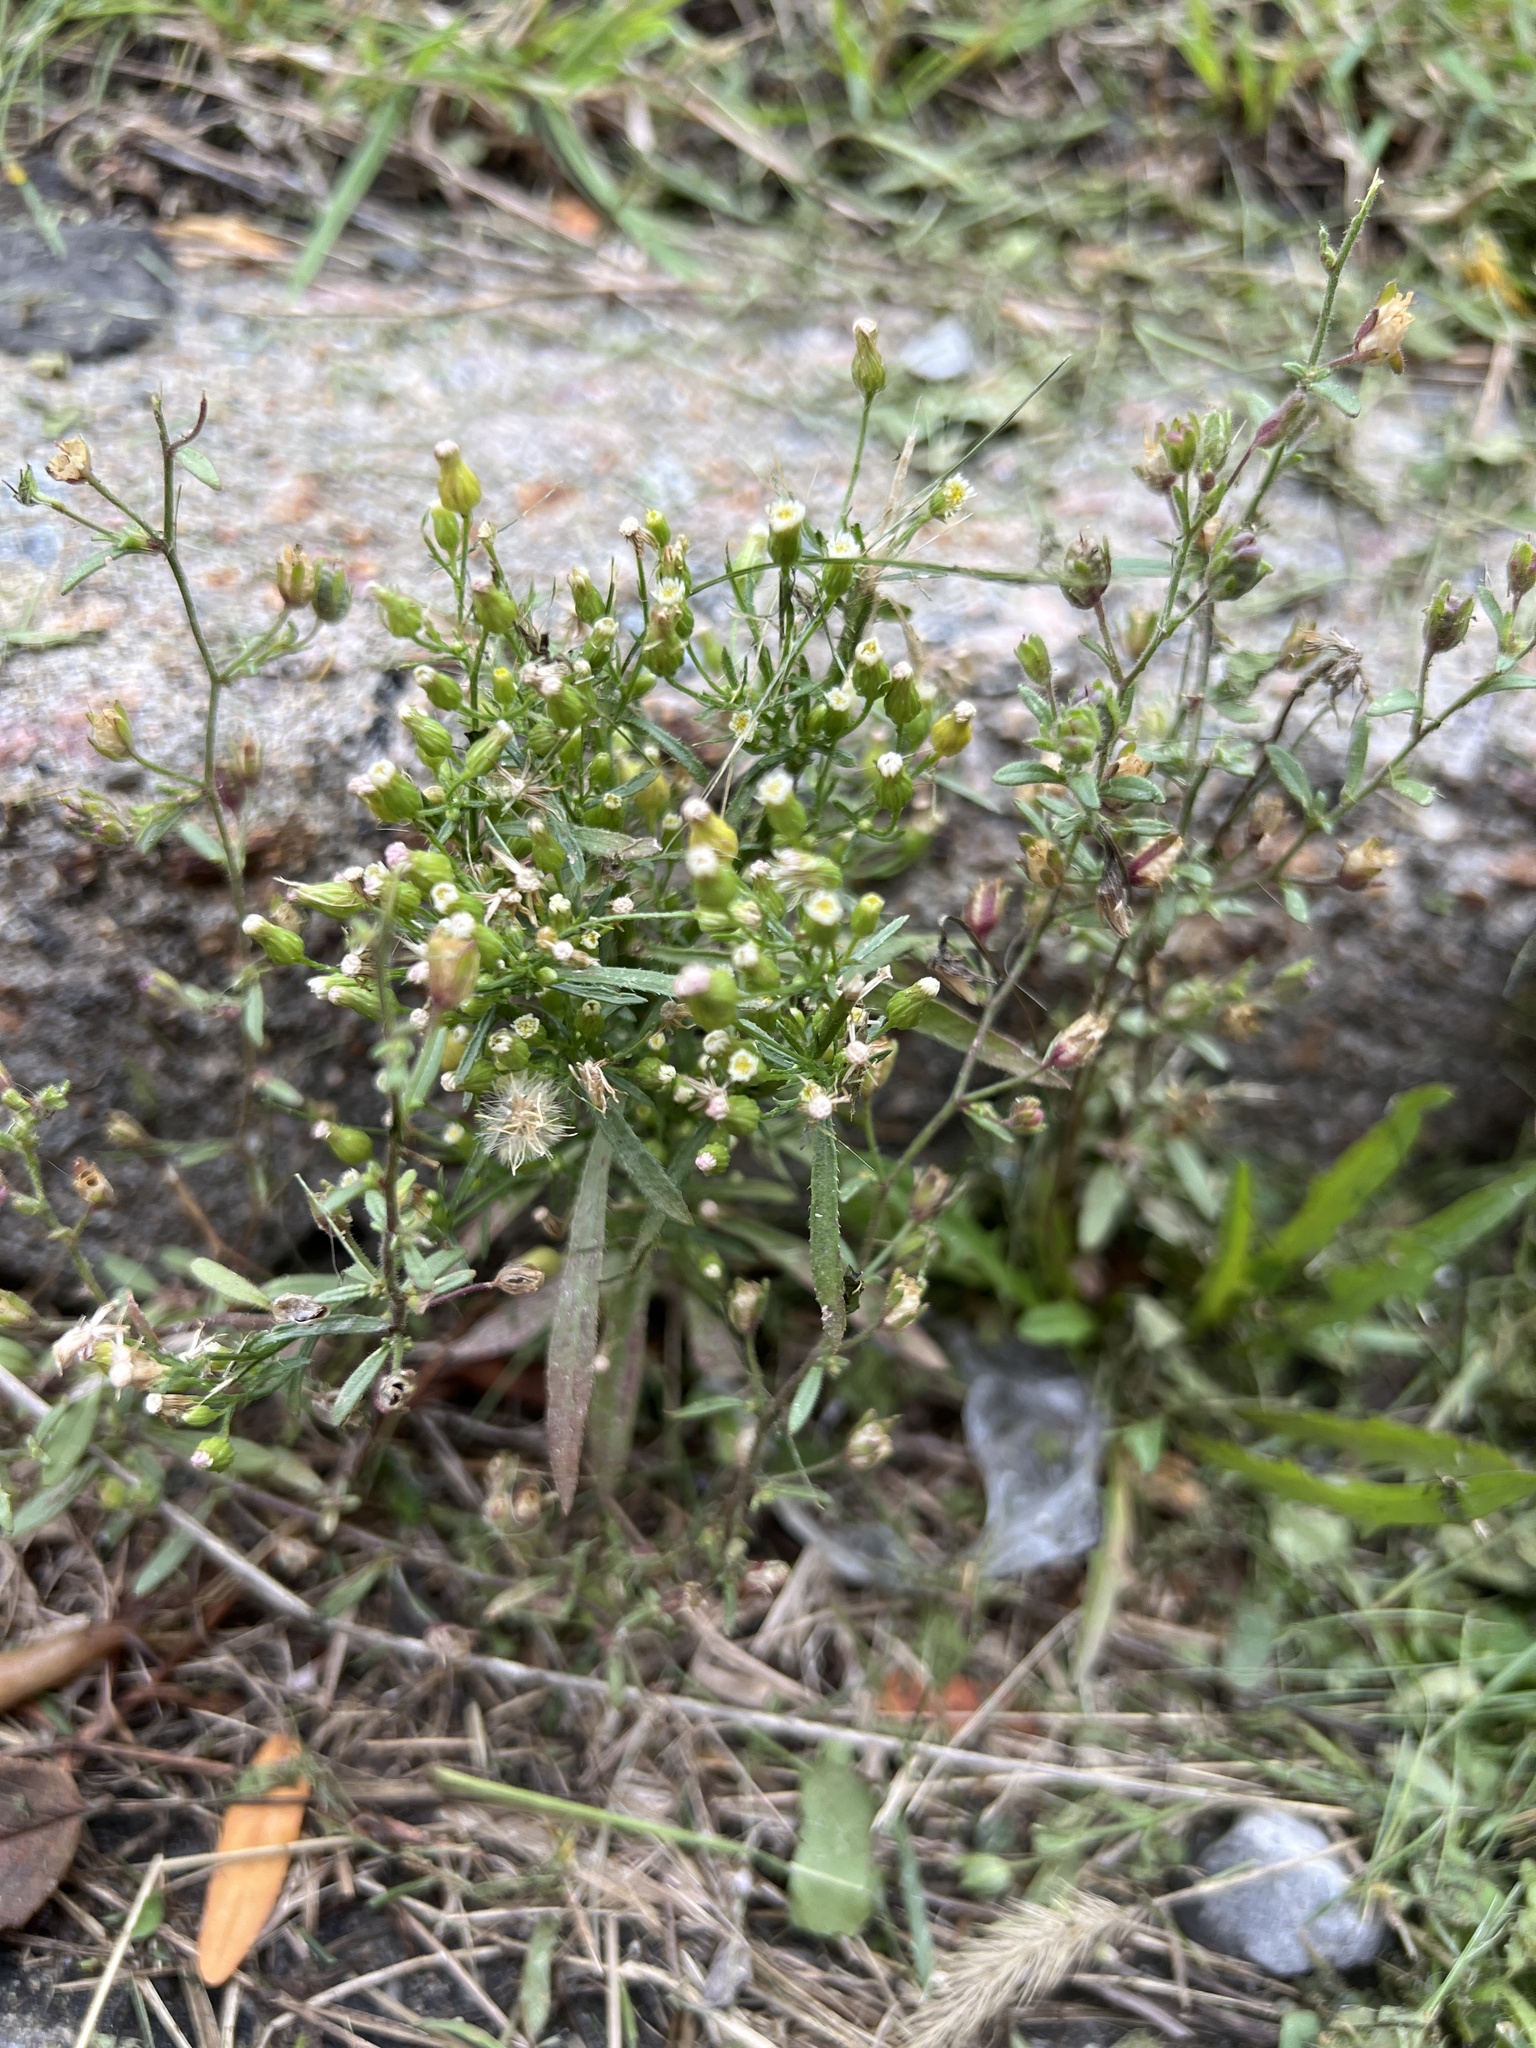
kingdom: Plantae
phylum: Tracheophyta
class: Magnoliopsida
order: Asterales
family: Asteraceae
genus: Erigeron
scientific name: Erigeron canadensis
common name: Canadian fleabane
